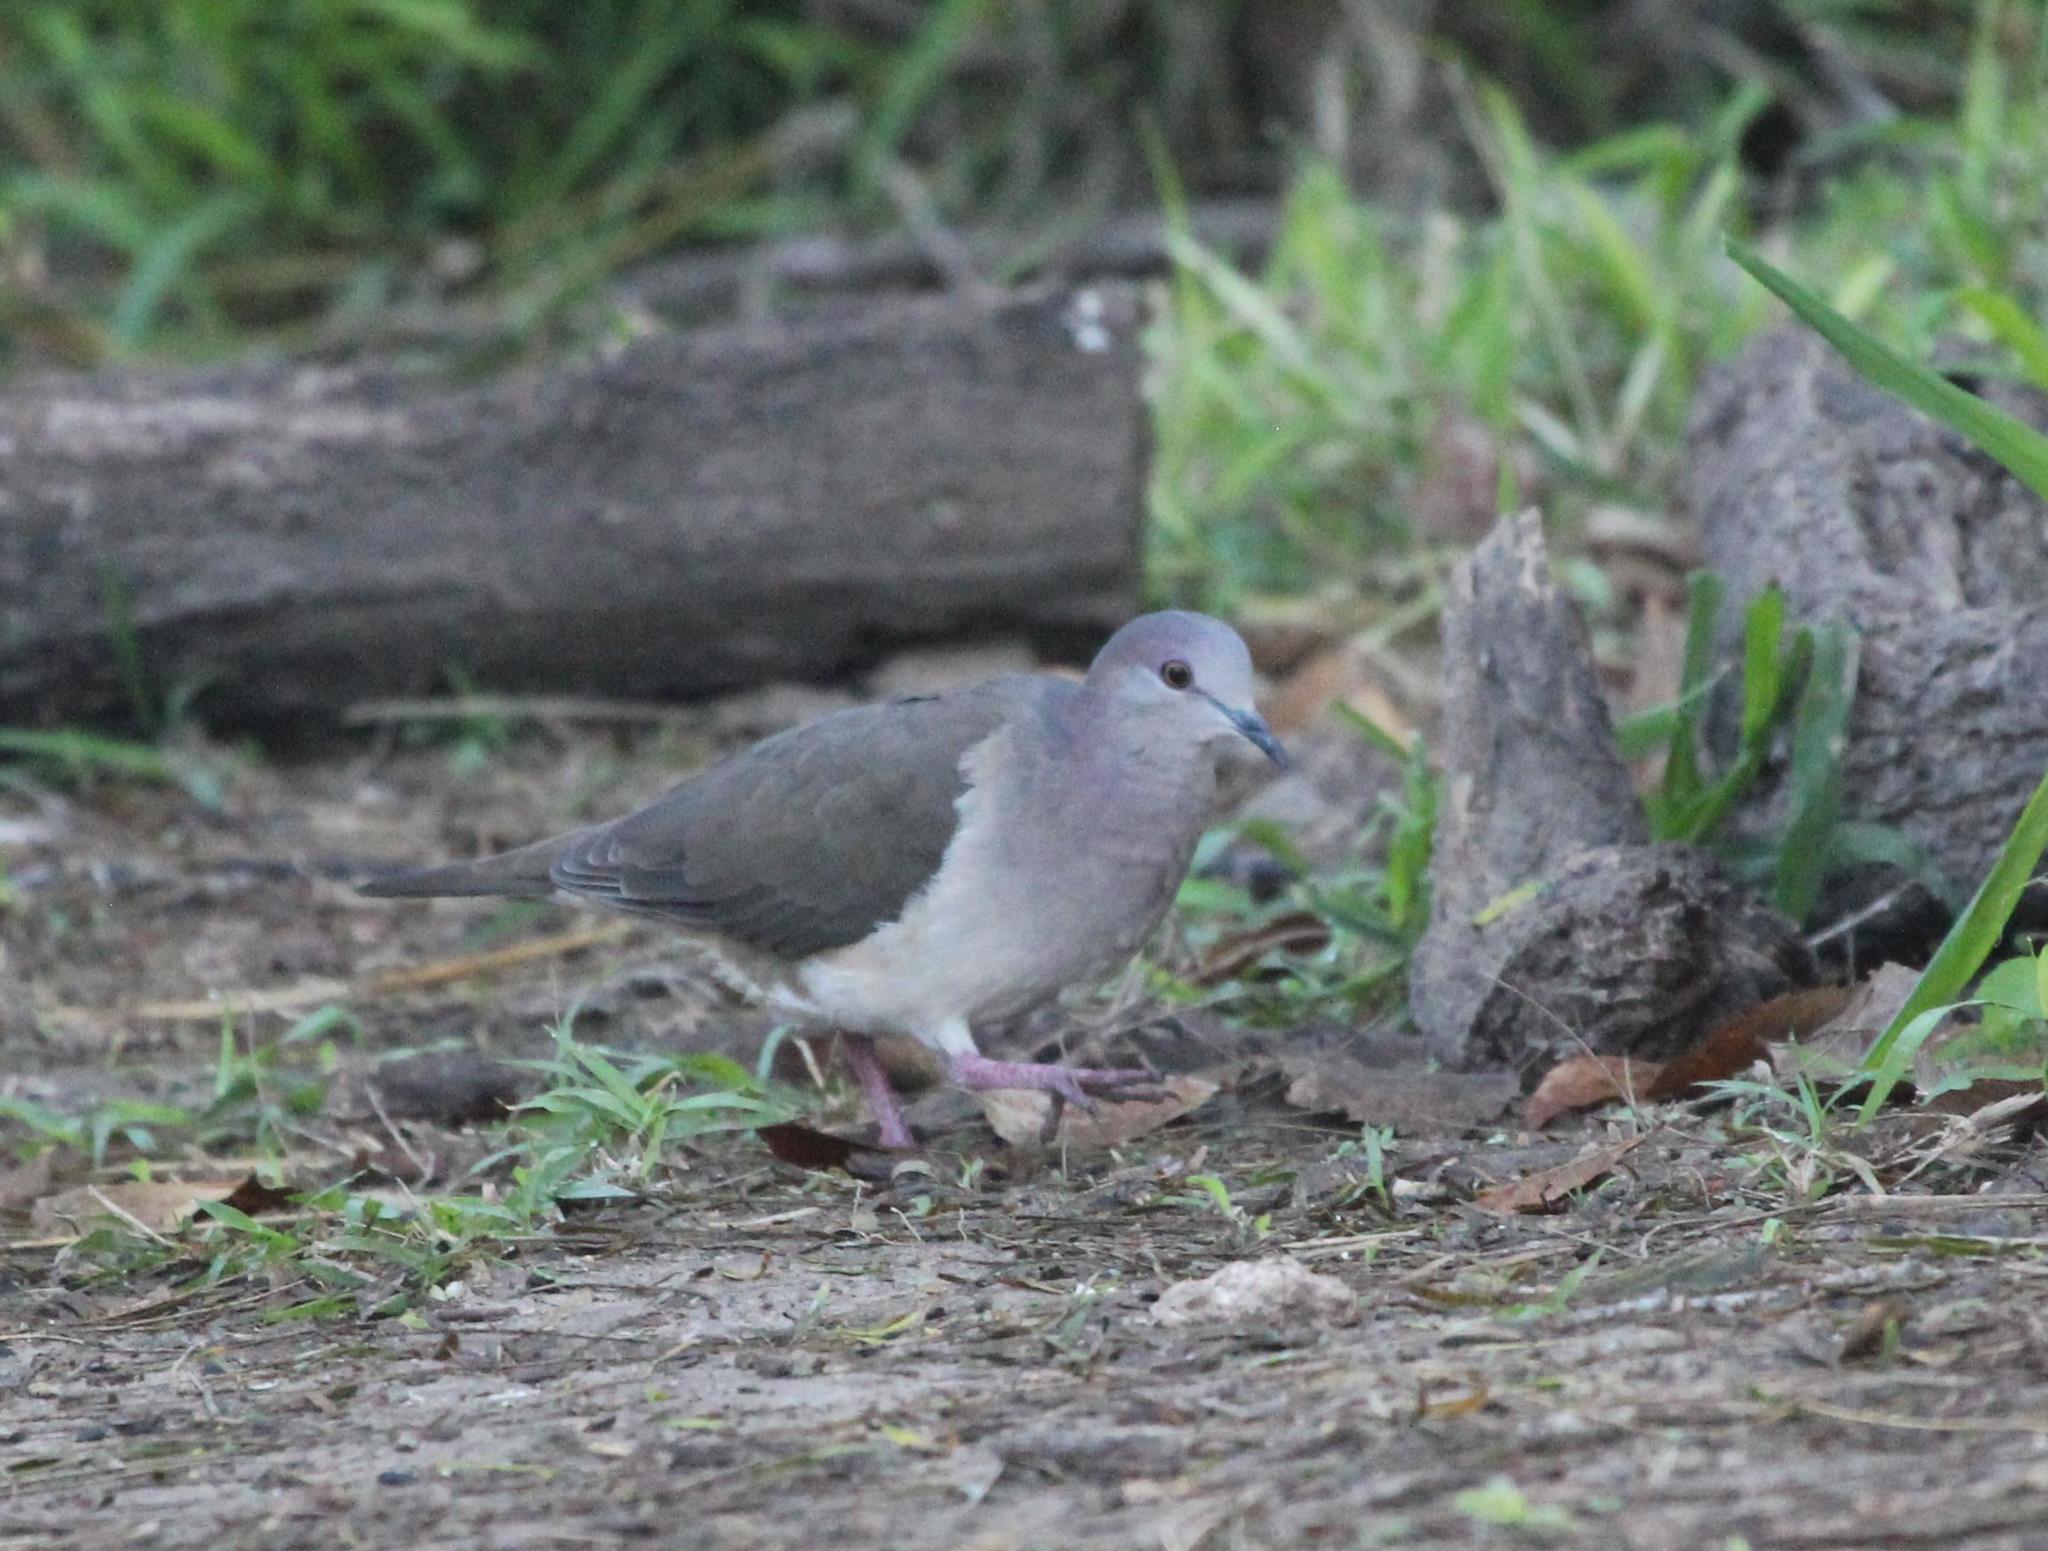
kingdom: Animalia
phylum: Chordata
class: Aves
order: Columbiformes
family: Columbidae
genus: Leptotila
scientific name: Leptotila verreauxi
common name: White-tipped dove
